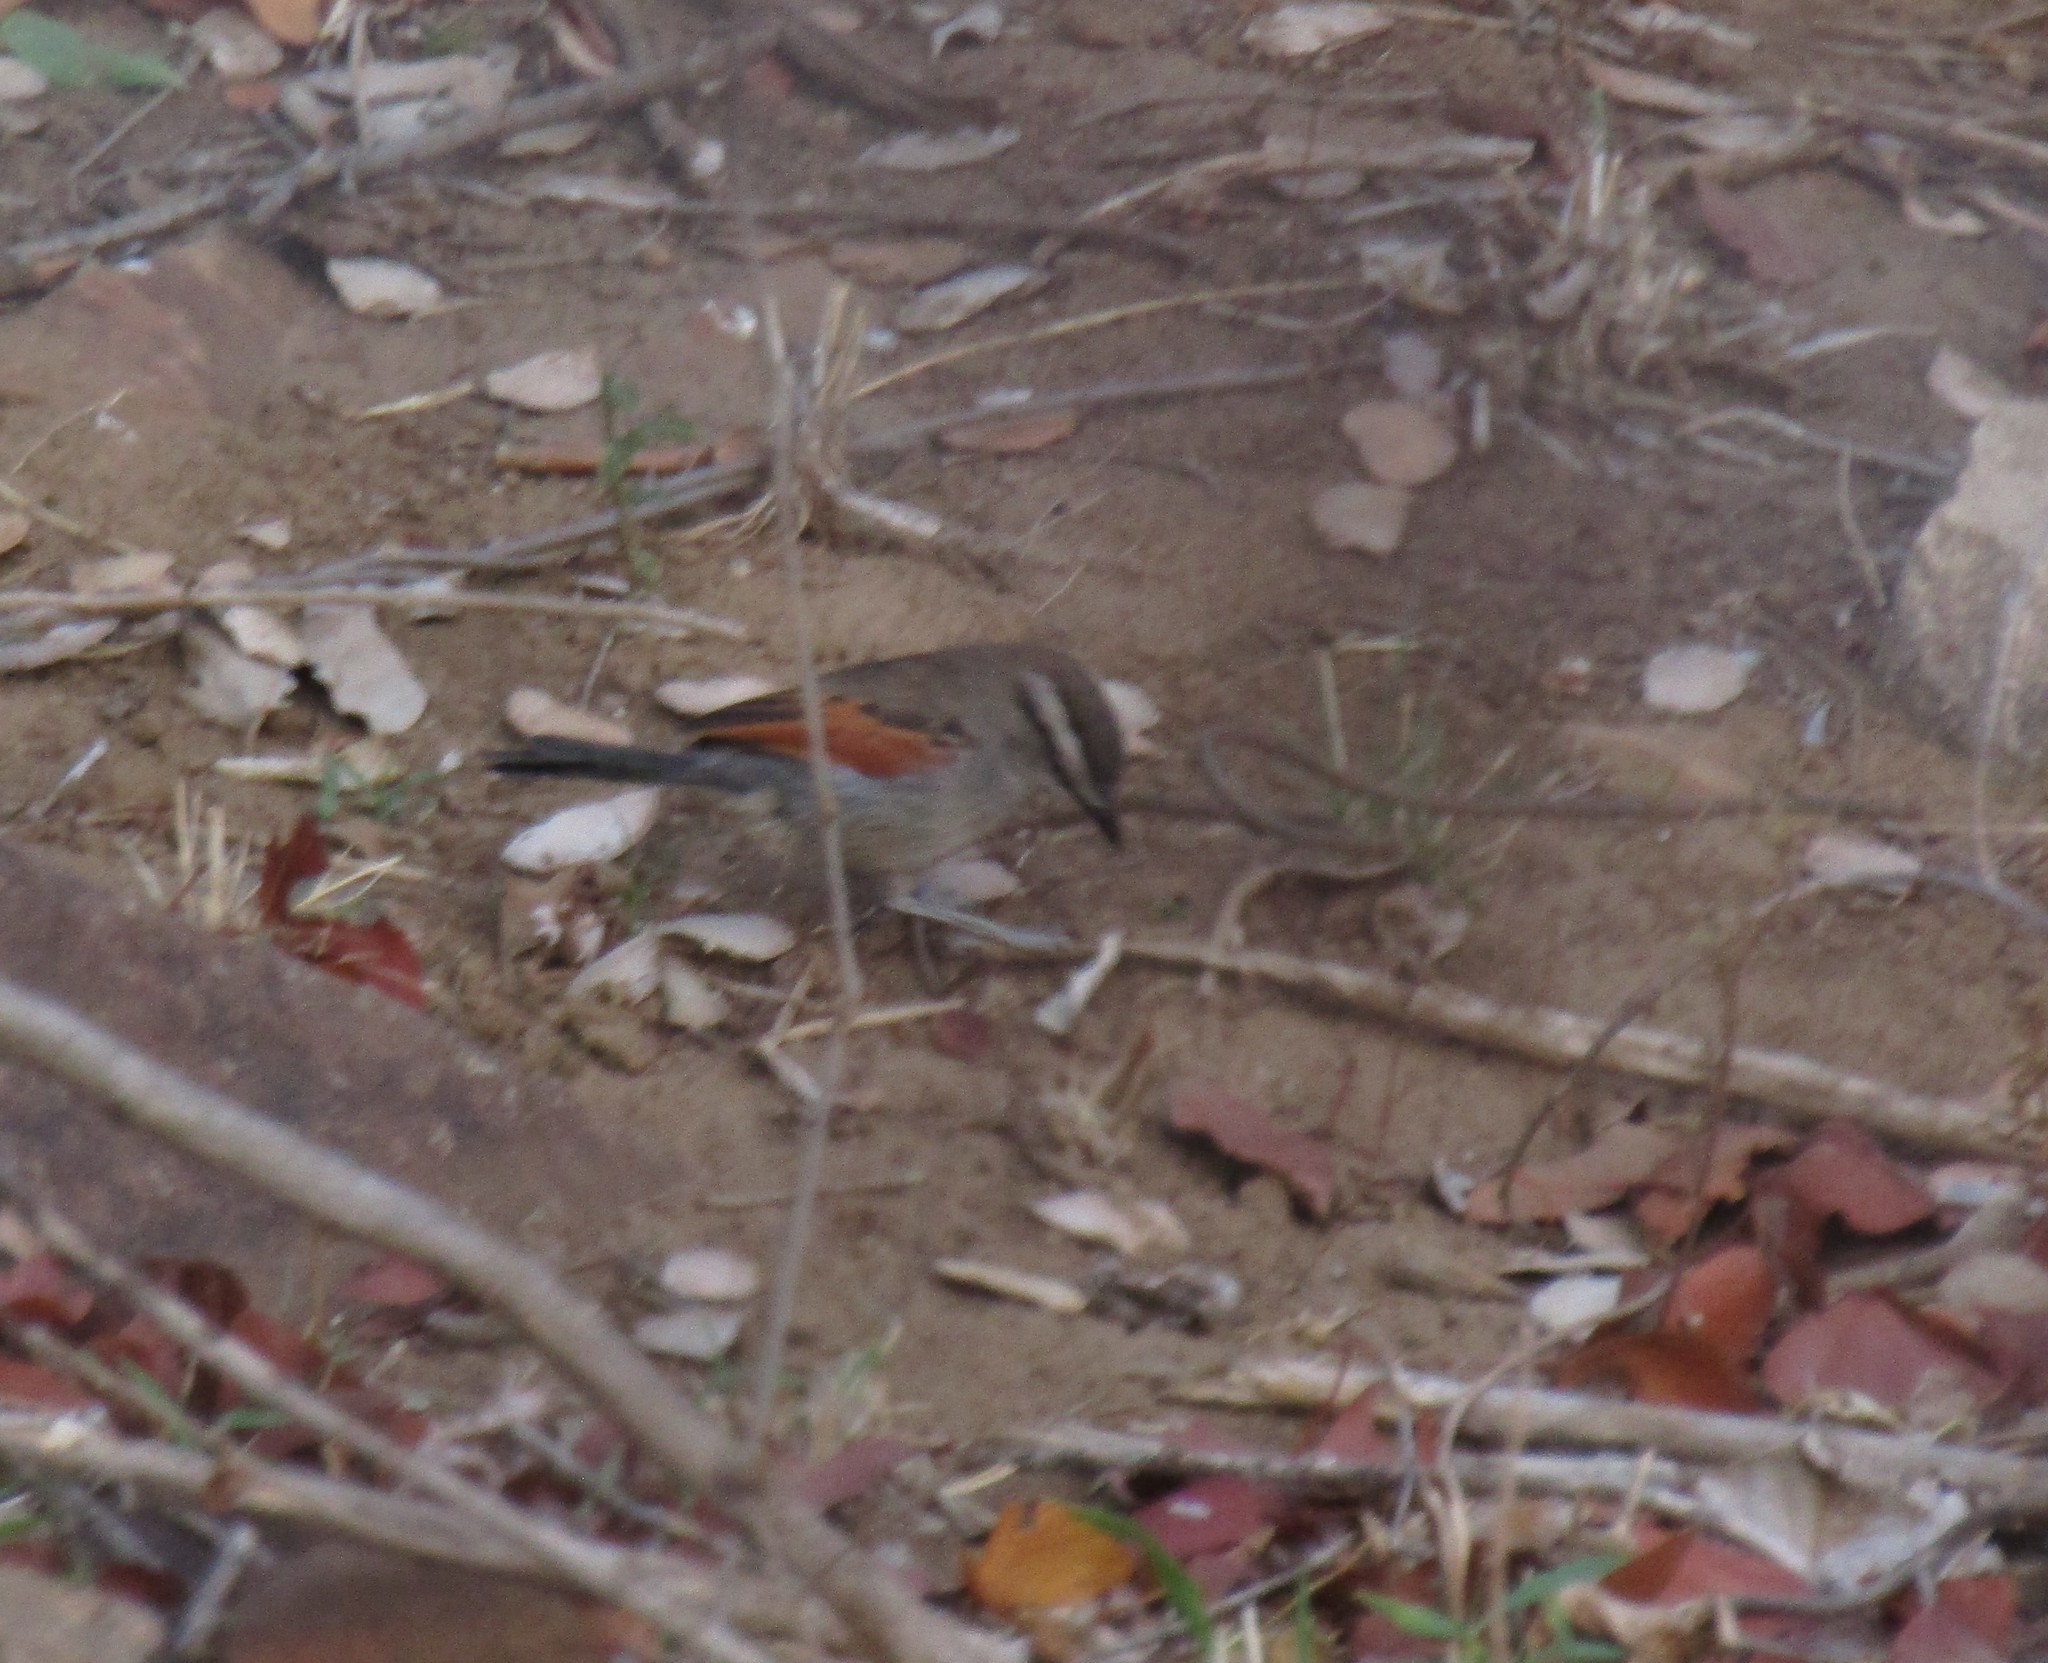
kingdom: Animalia
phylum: Chordata
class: Aves
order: Passeriformes
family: Malaconotidae
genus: Tchagra
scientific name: Tchagra australis
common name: Brown-crowned tchagra
